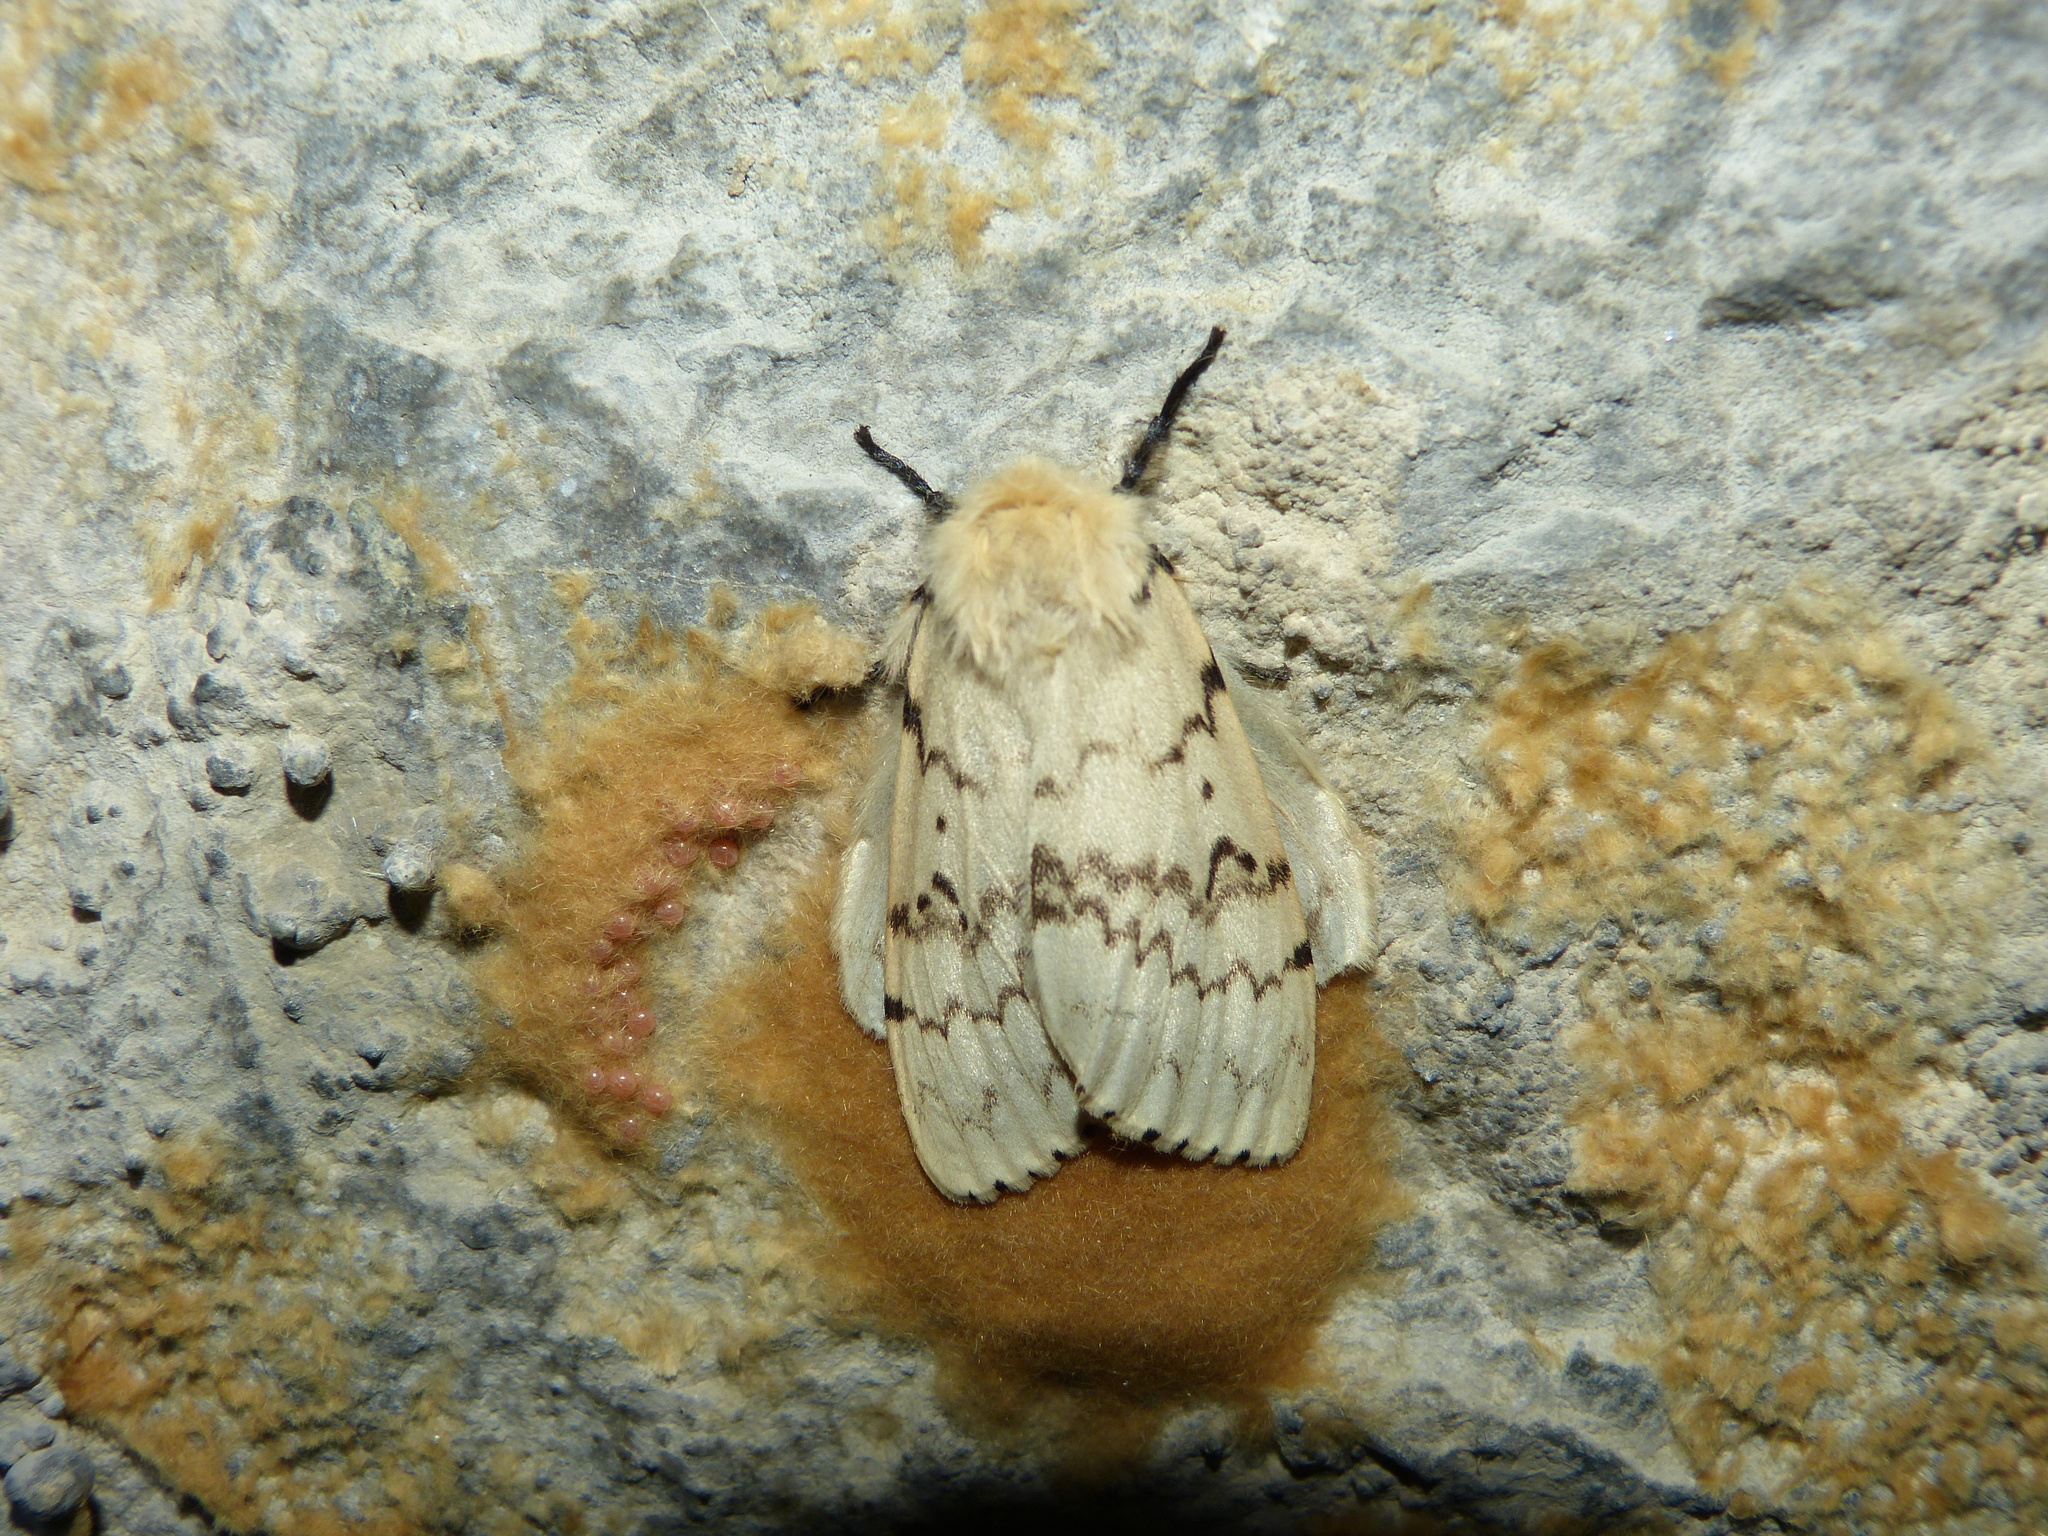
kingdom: Animalia
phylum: Arthropoda
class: Insecta
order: Lepidoptera
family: Erebidae
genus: Lymantria
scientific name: Lymantria dispar
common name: Gypsy moth
